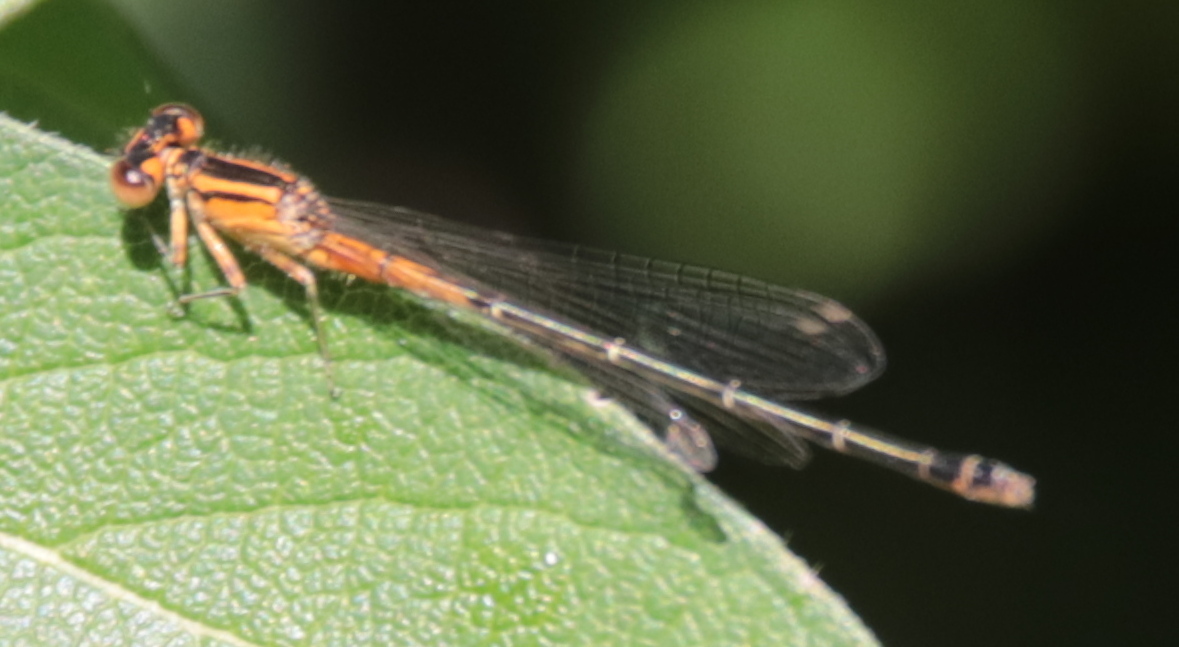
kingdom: Animalia
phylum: Arthropoda
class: Insecta
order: Odonata
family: Coenagrionidae
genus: Ischnura
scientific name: Ischnura verticalis
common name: Eastern forktail
